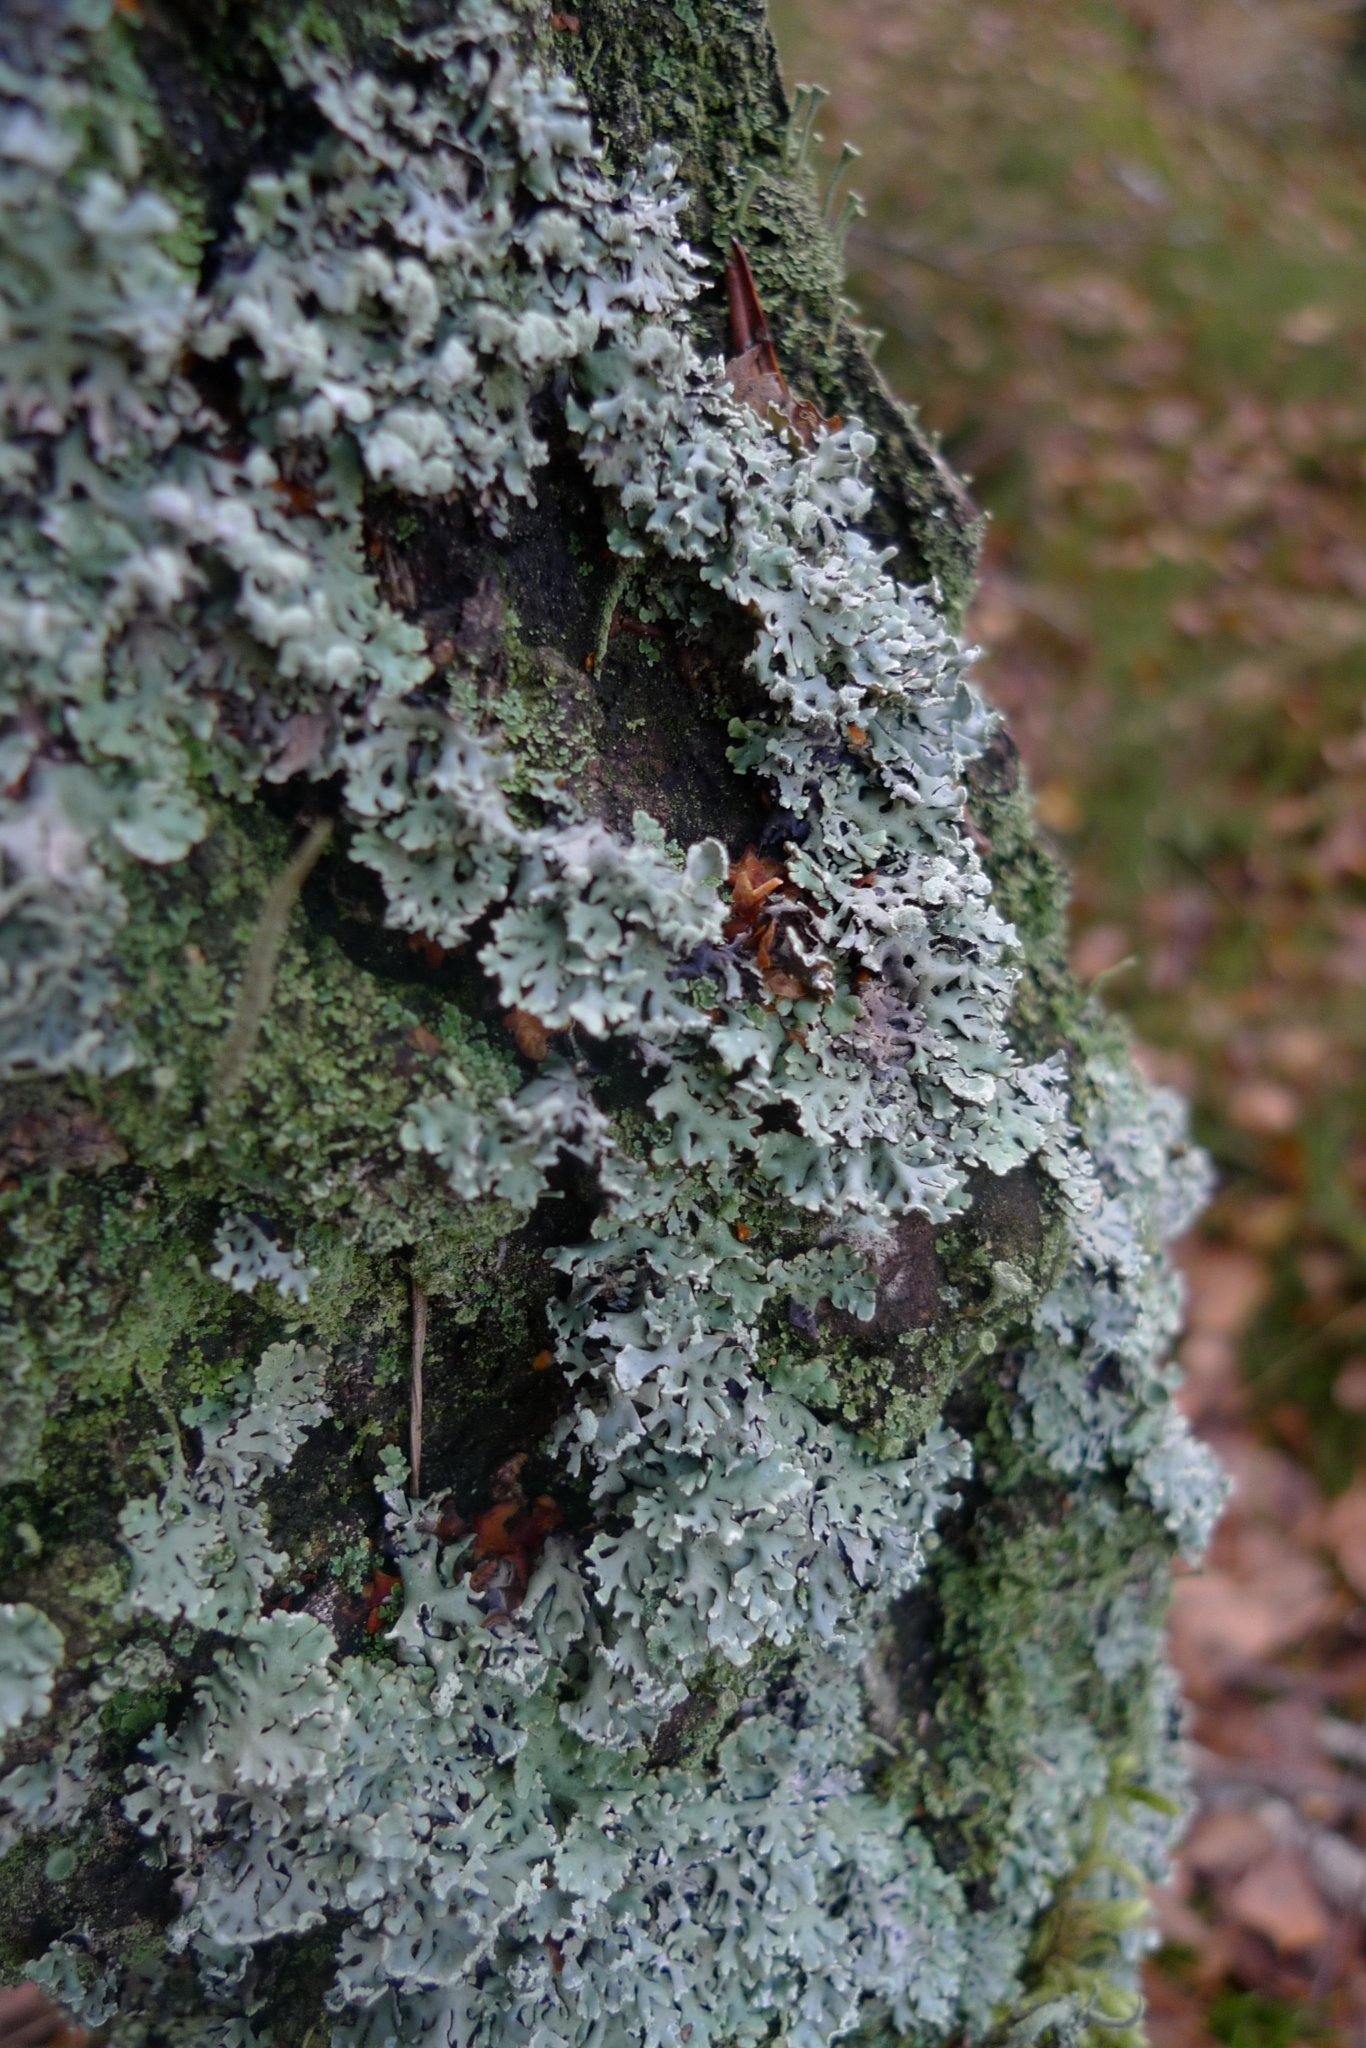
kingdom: Fungi
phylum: Ascomycota
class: Lecanoromycetes
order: Lecanorales
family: Parmeliaceae
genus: Hypogymnia
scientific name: Hypogymnia physodes
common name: Dark crottle
